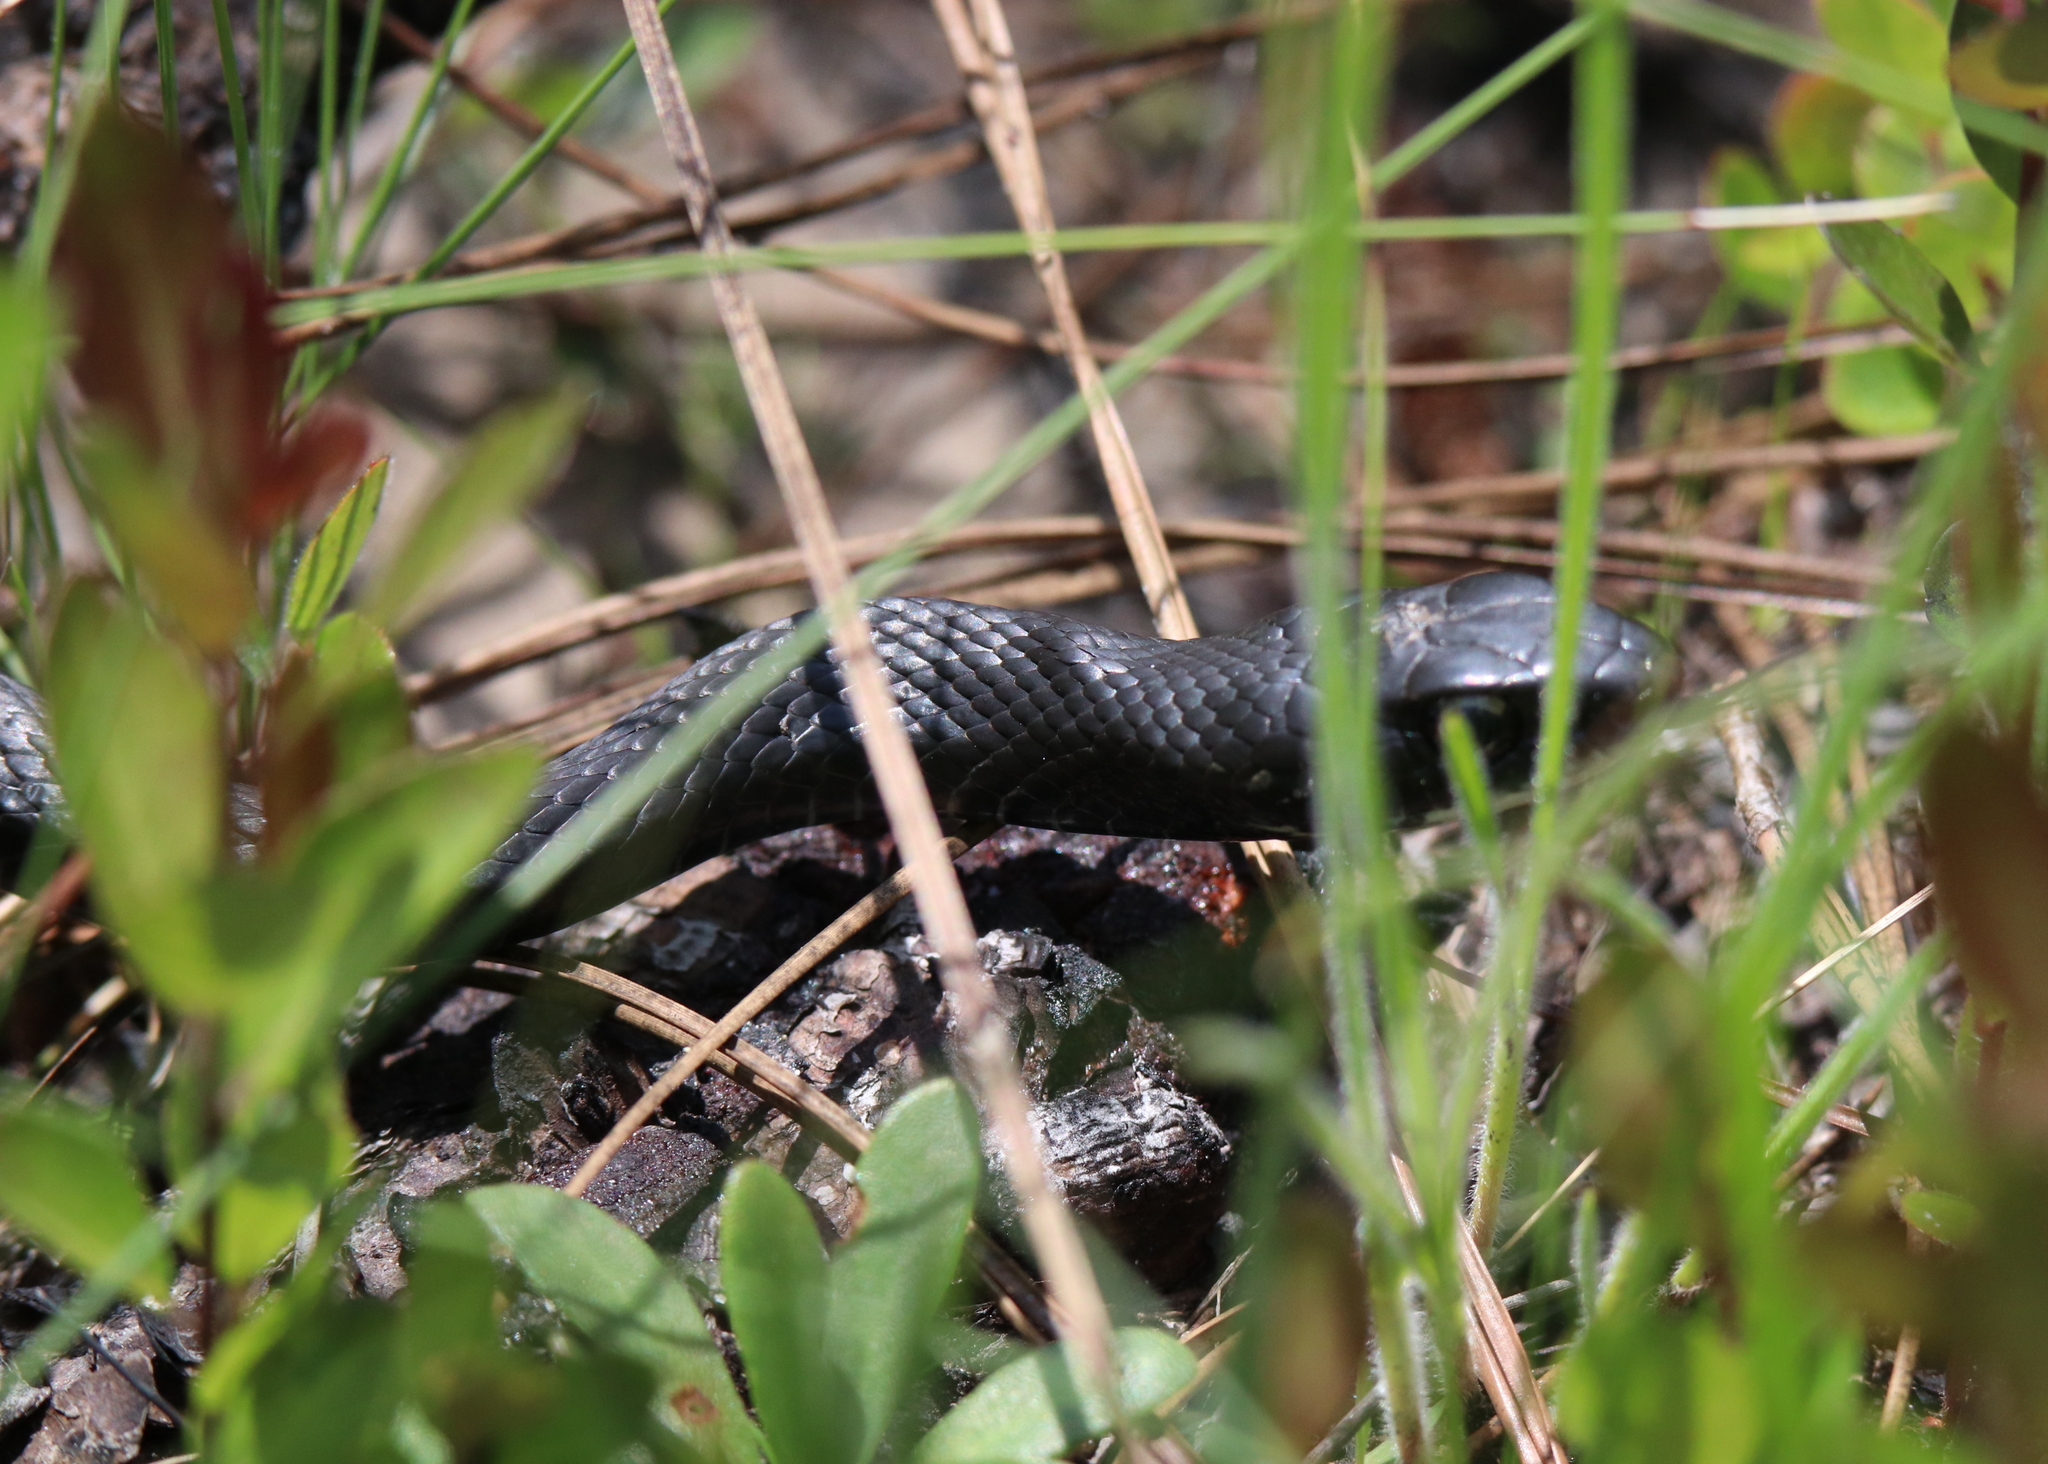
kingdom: Animalia
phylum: Chordata
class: Squamata
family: Colubridae
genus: Coluber
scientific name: Coluber constrictor
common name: Eastern racer
